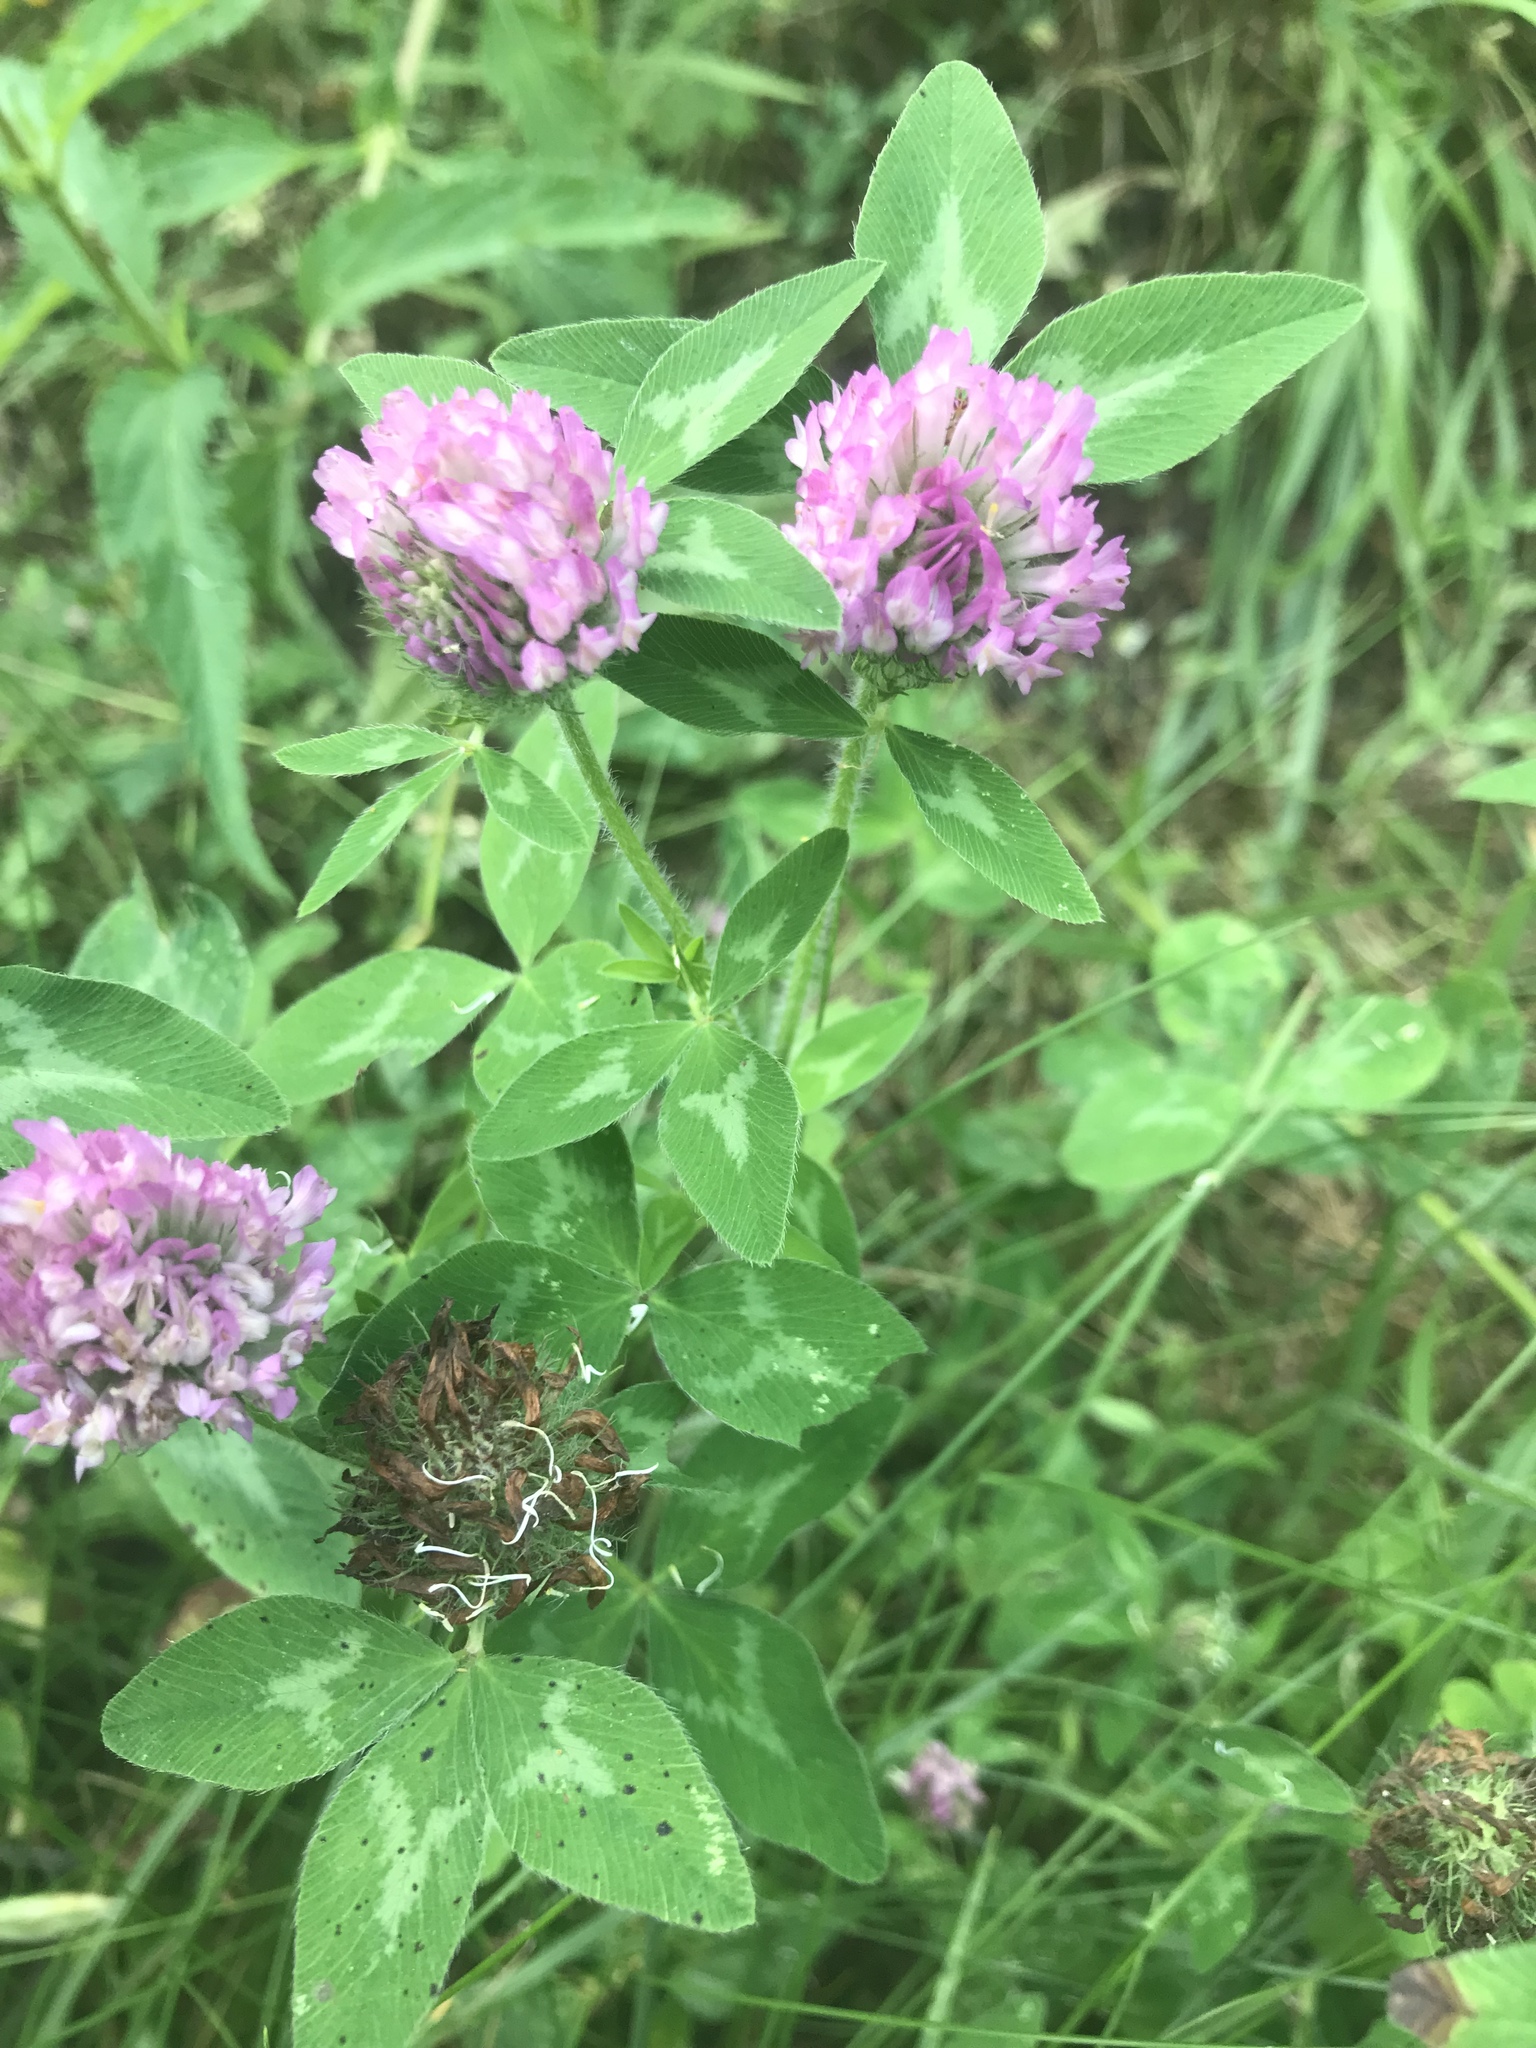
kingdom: Plantae
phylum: Tracheophyta
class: Magnoliopsida
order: Fabales
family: Fabaceae
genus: Trifolium
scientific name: Trifolium pratense
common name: Red clover
